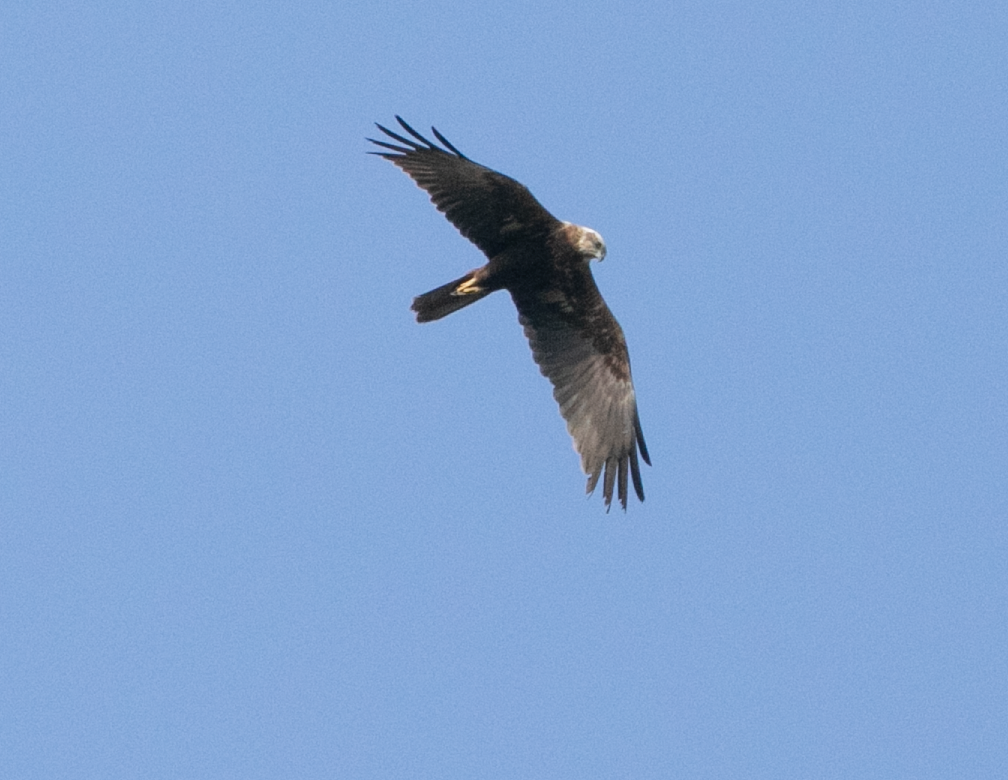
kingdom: Animalia
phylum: Chordata
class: Aves
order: Accipitriformes
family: Accipitridae
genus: Circus
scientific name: Circus aeruginosus
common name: Western marsh harrier
